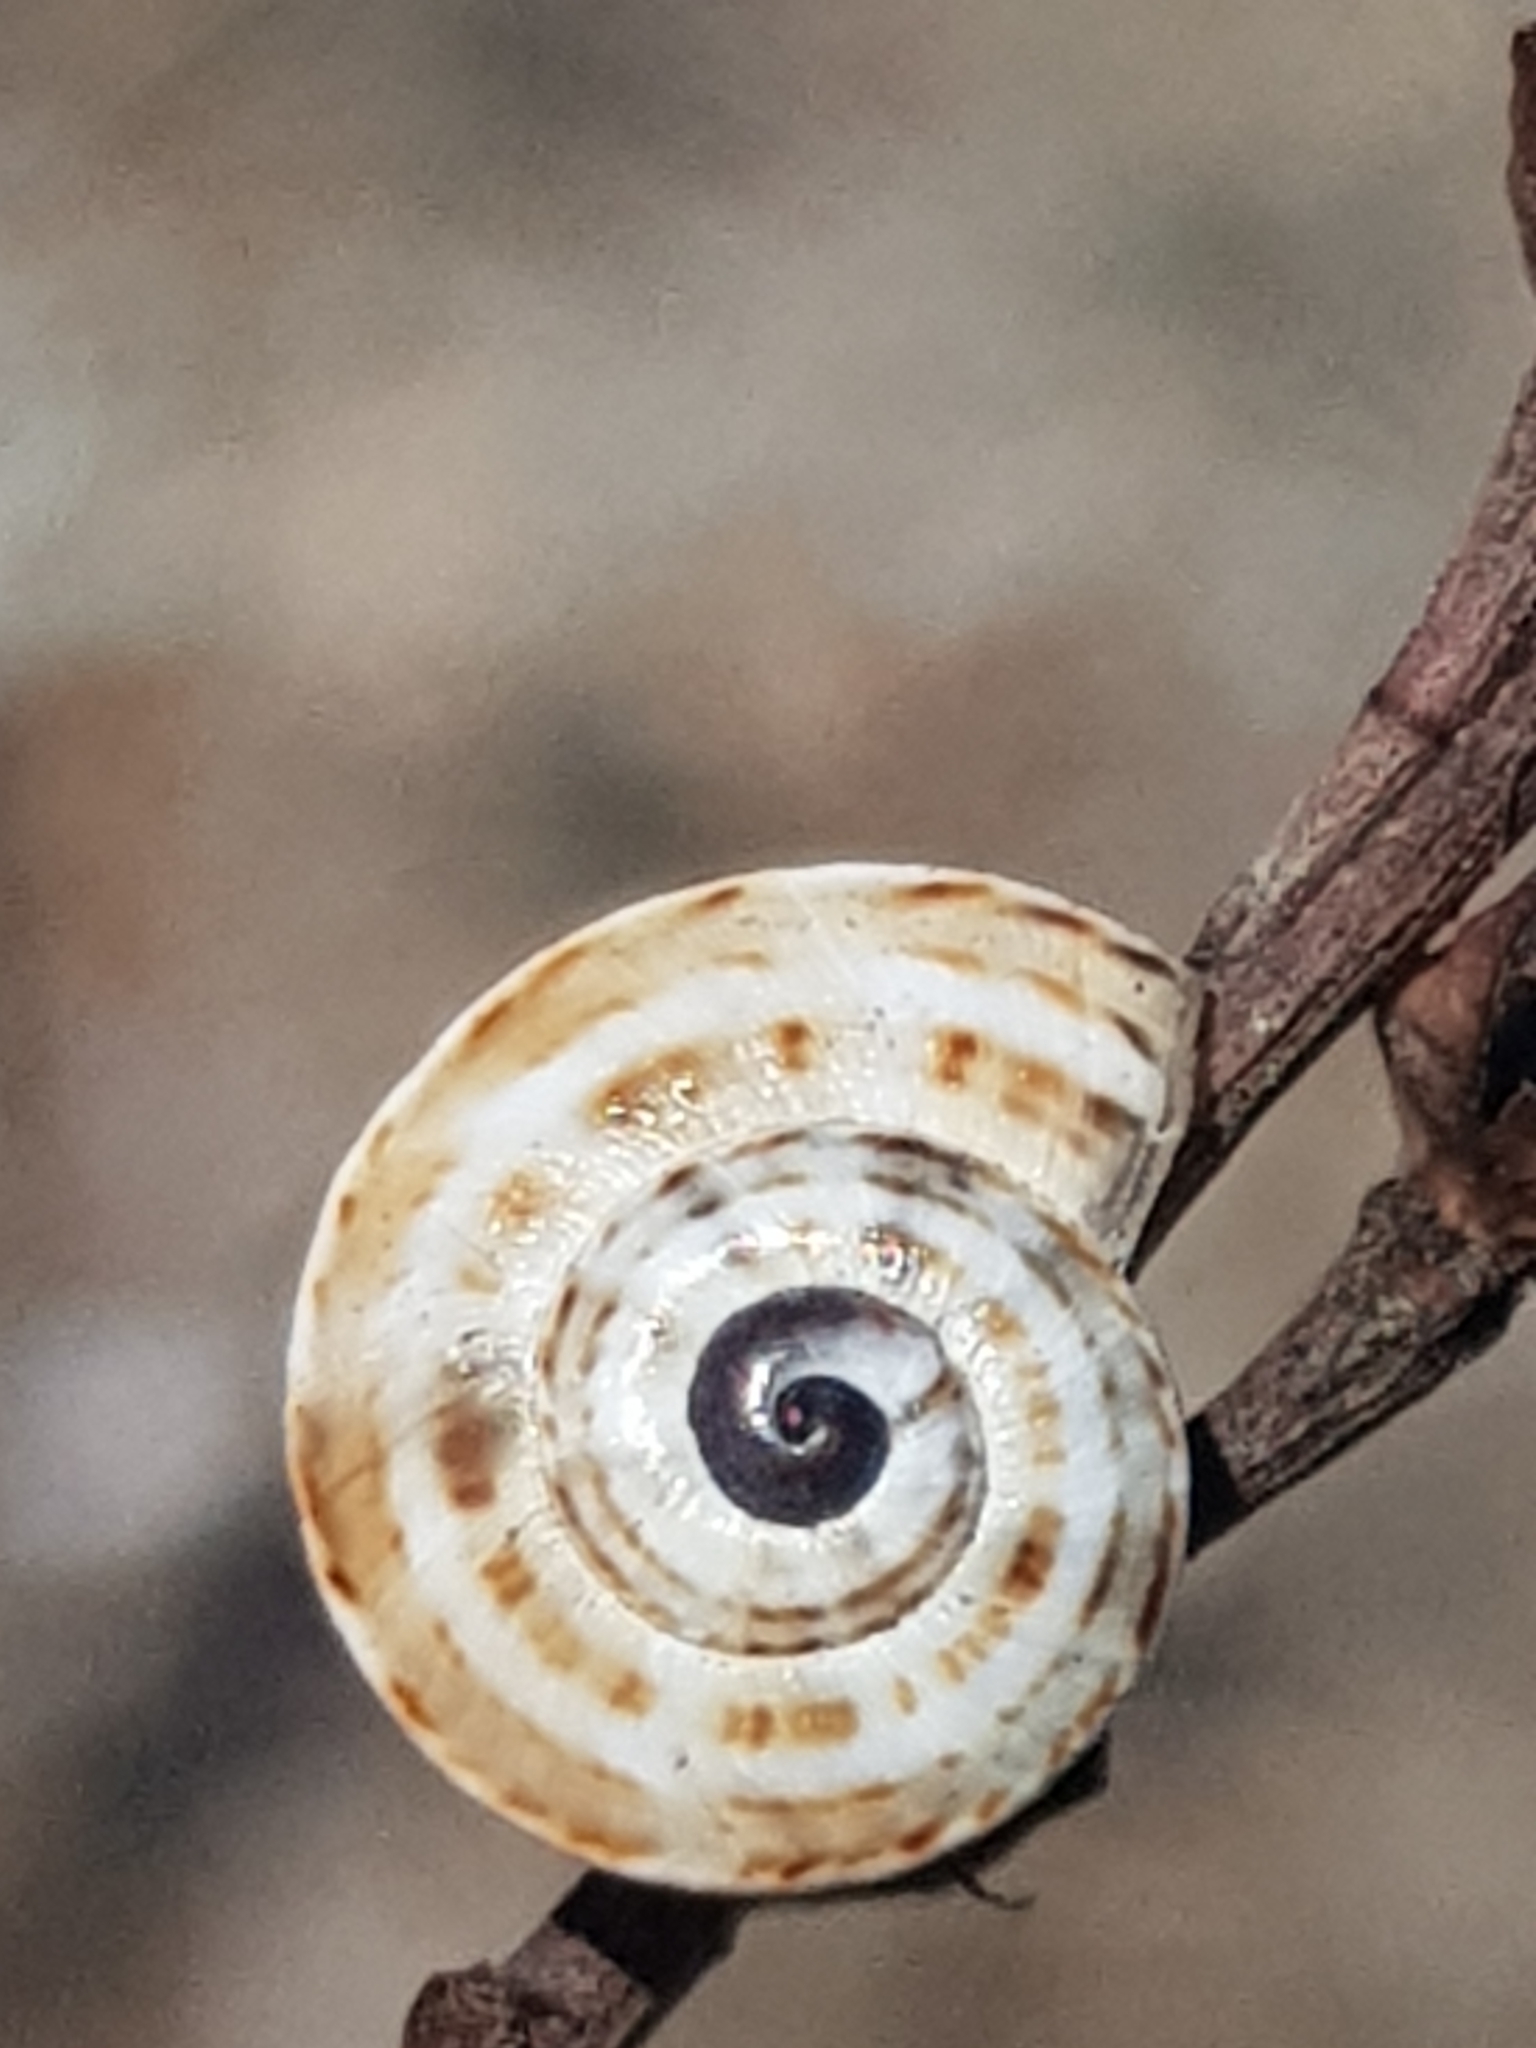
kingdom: Animalia
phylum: Mollusca
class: Gastropoda
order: Stylommatophora
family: Helicidae
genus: Theba
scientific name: Theba pisana
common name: White snail
